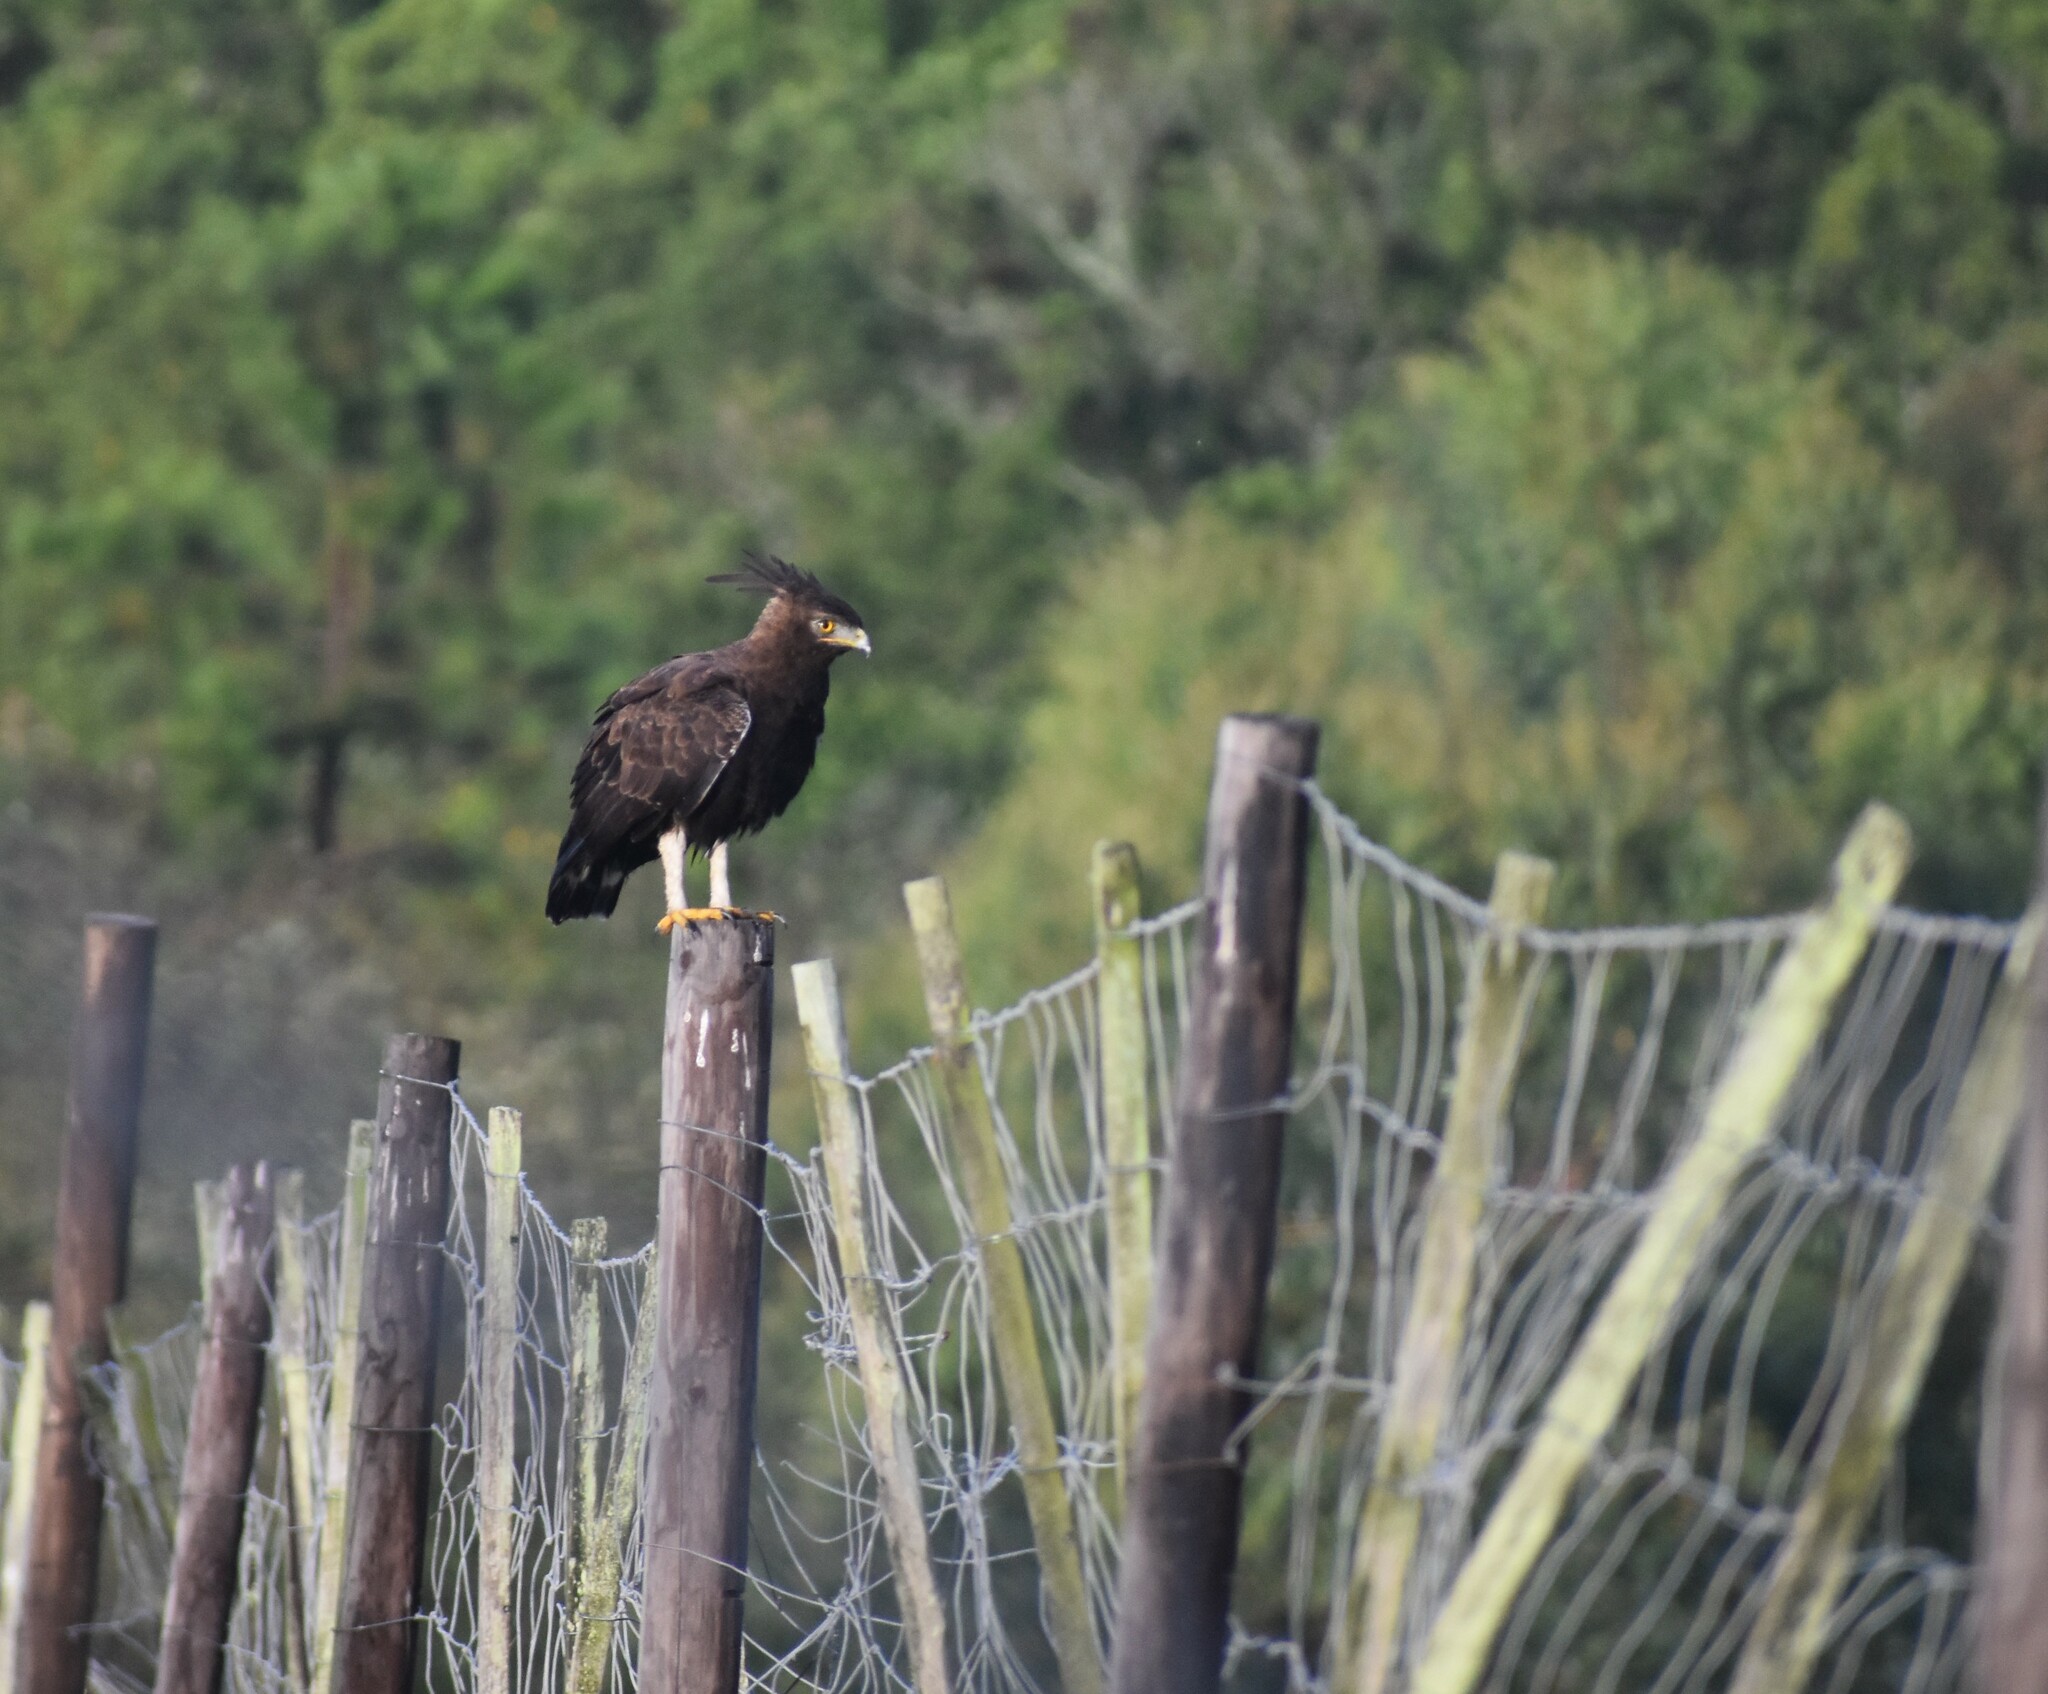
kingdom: Animalia
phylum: Chordata
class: Aves
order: Accipitriformes
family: Accipitridae
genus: Lophaetus
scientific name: Lophaetus occipitalis
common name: Long-crested eagle
